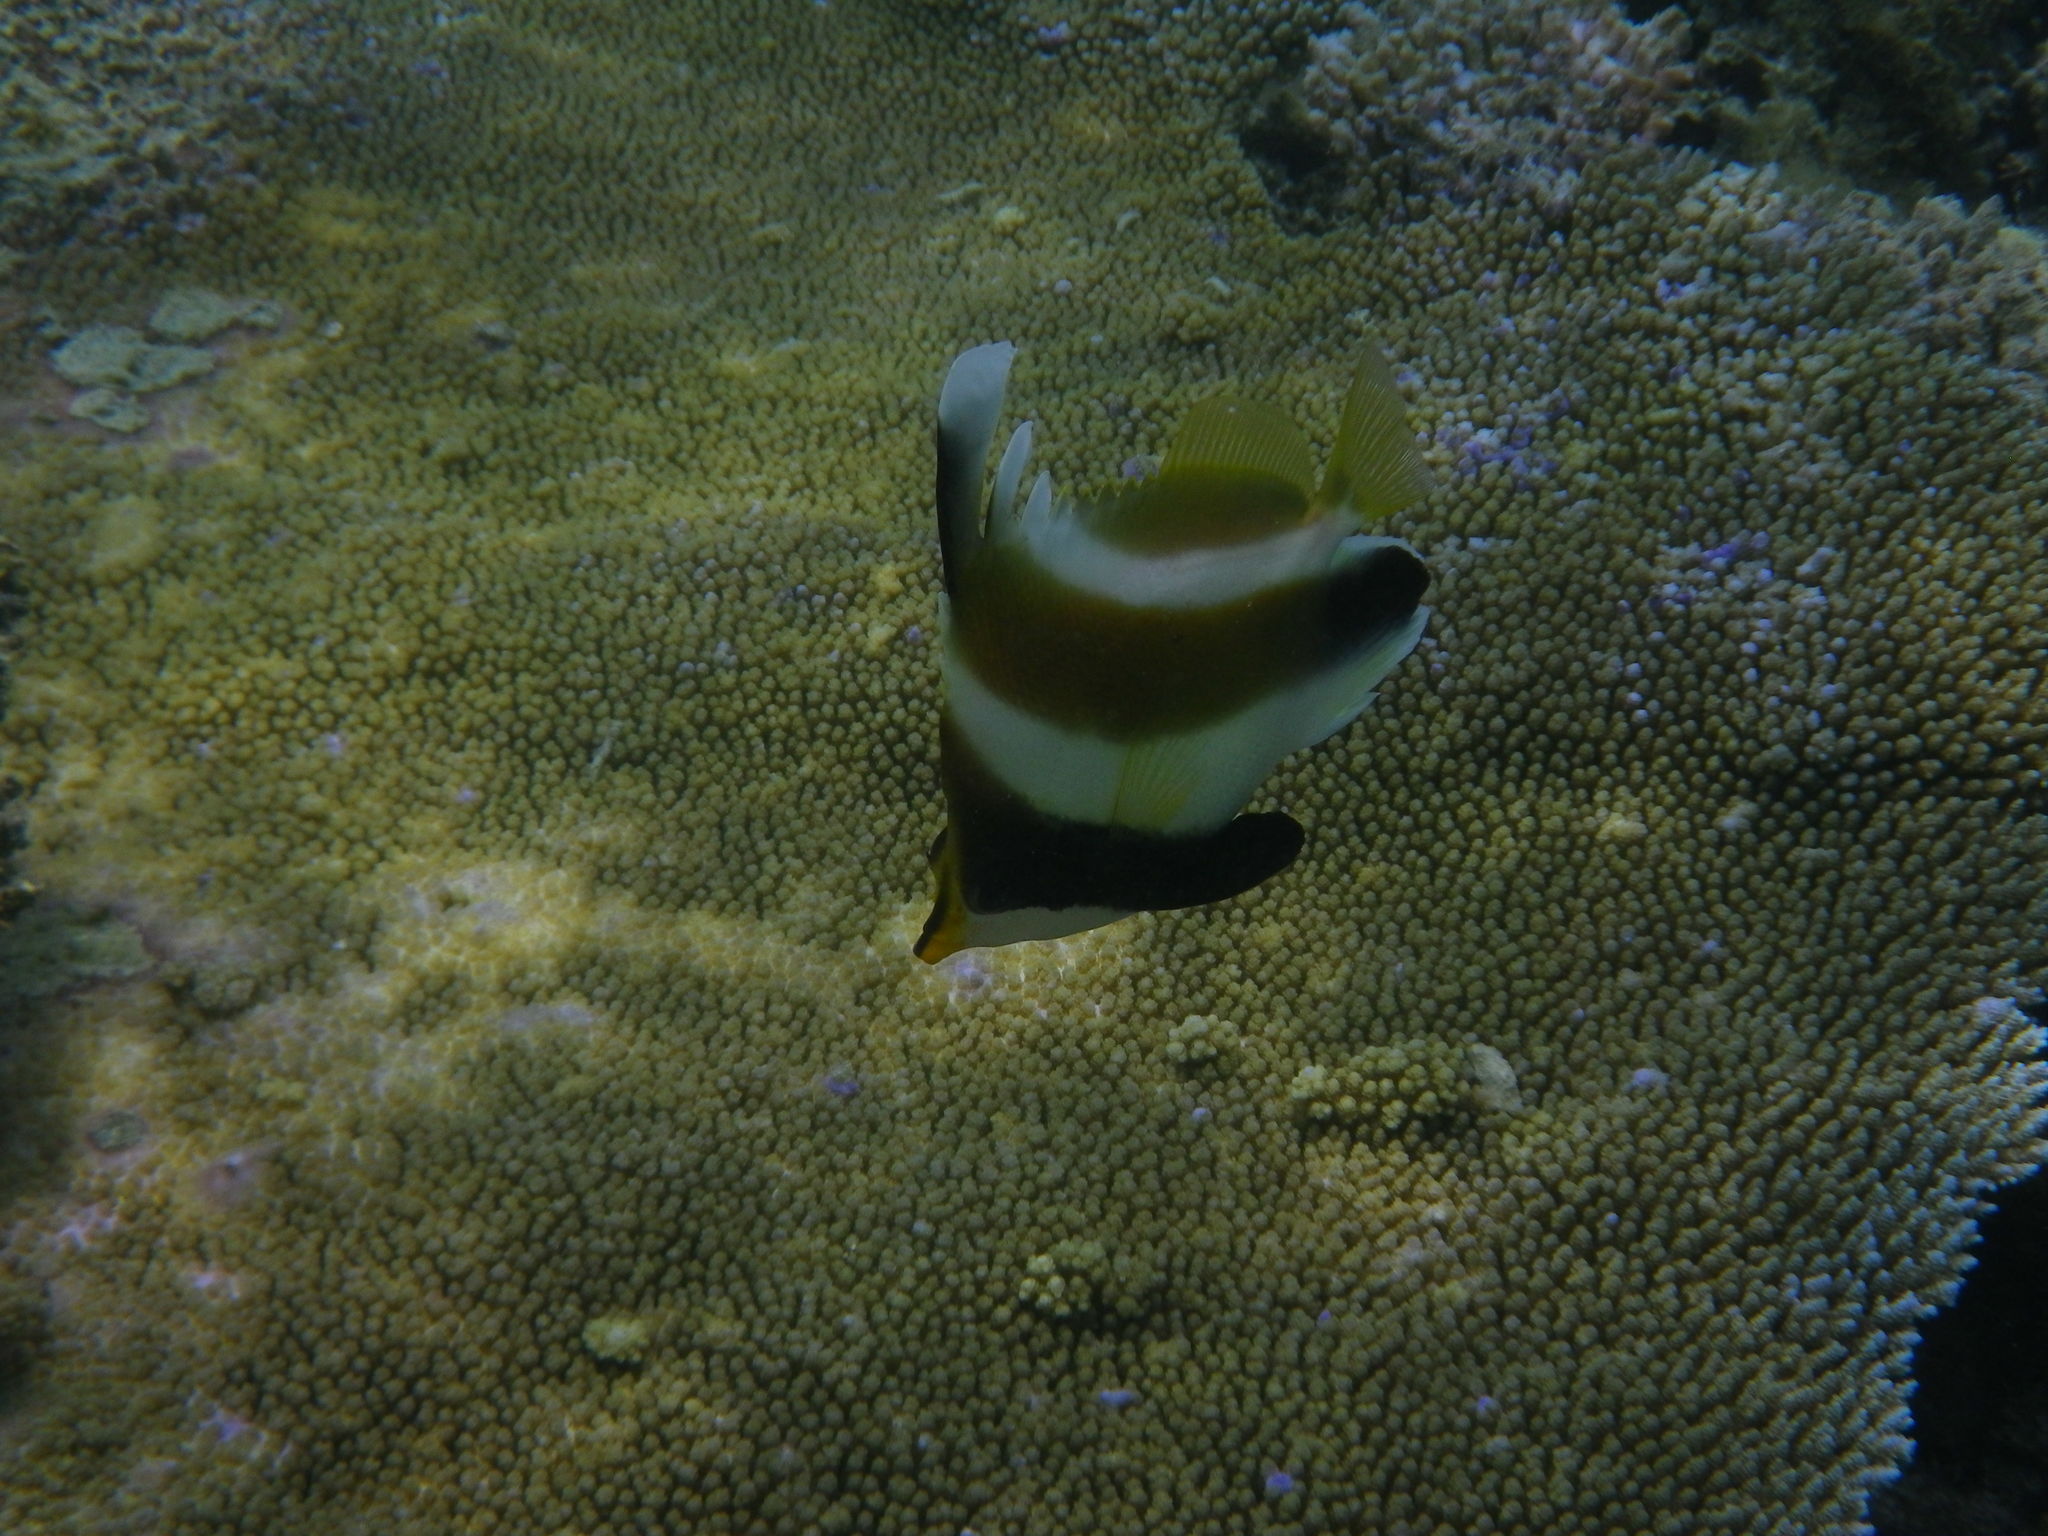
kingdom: Animalia
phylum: Chordata
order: Perciformes
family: Chaetodontidae
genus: Heniochus
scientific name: Heniochus chrysostomus
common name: Horned bannerfish
